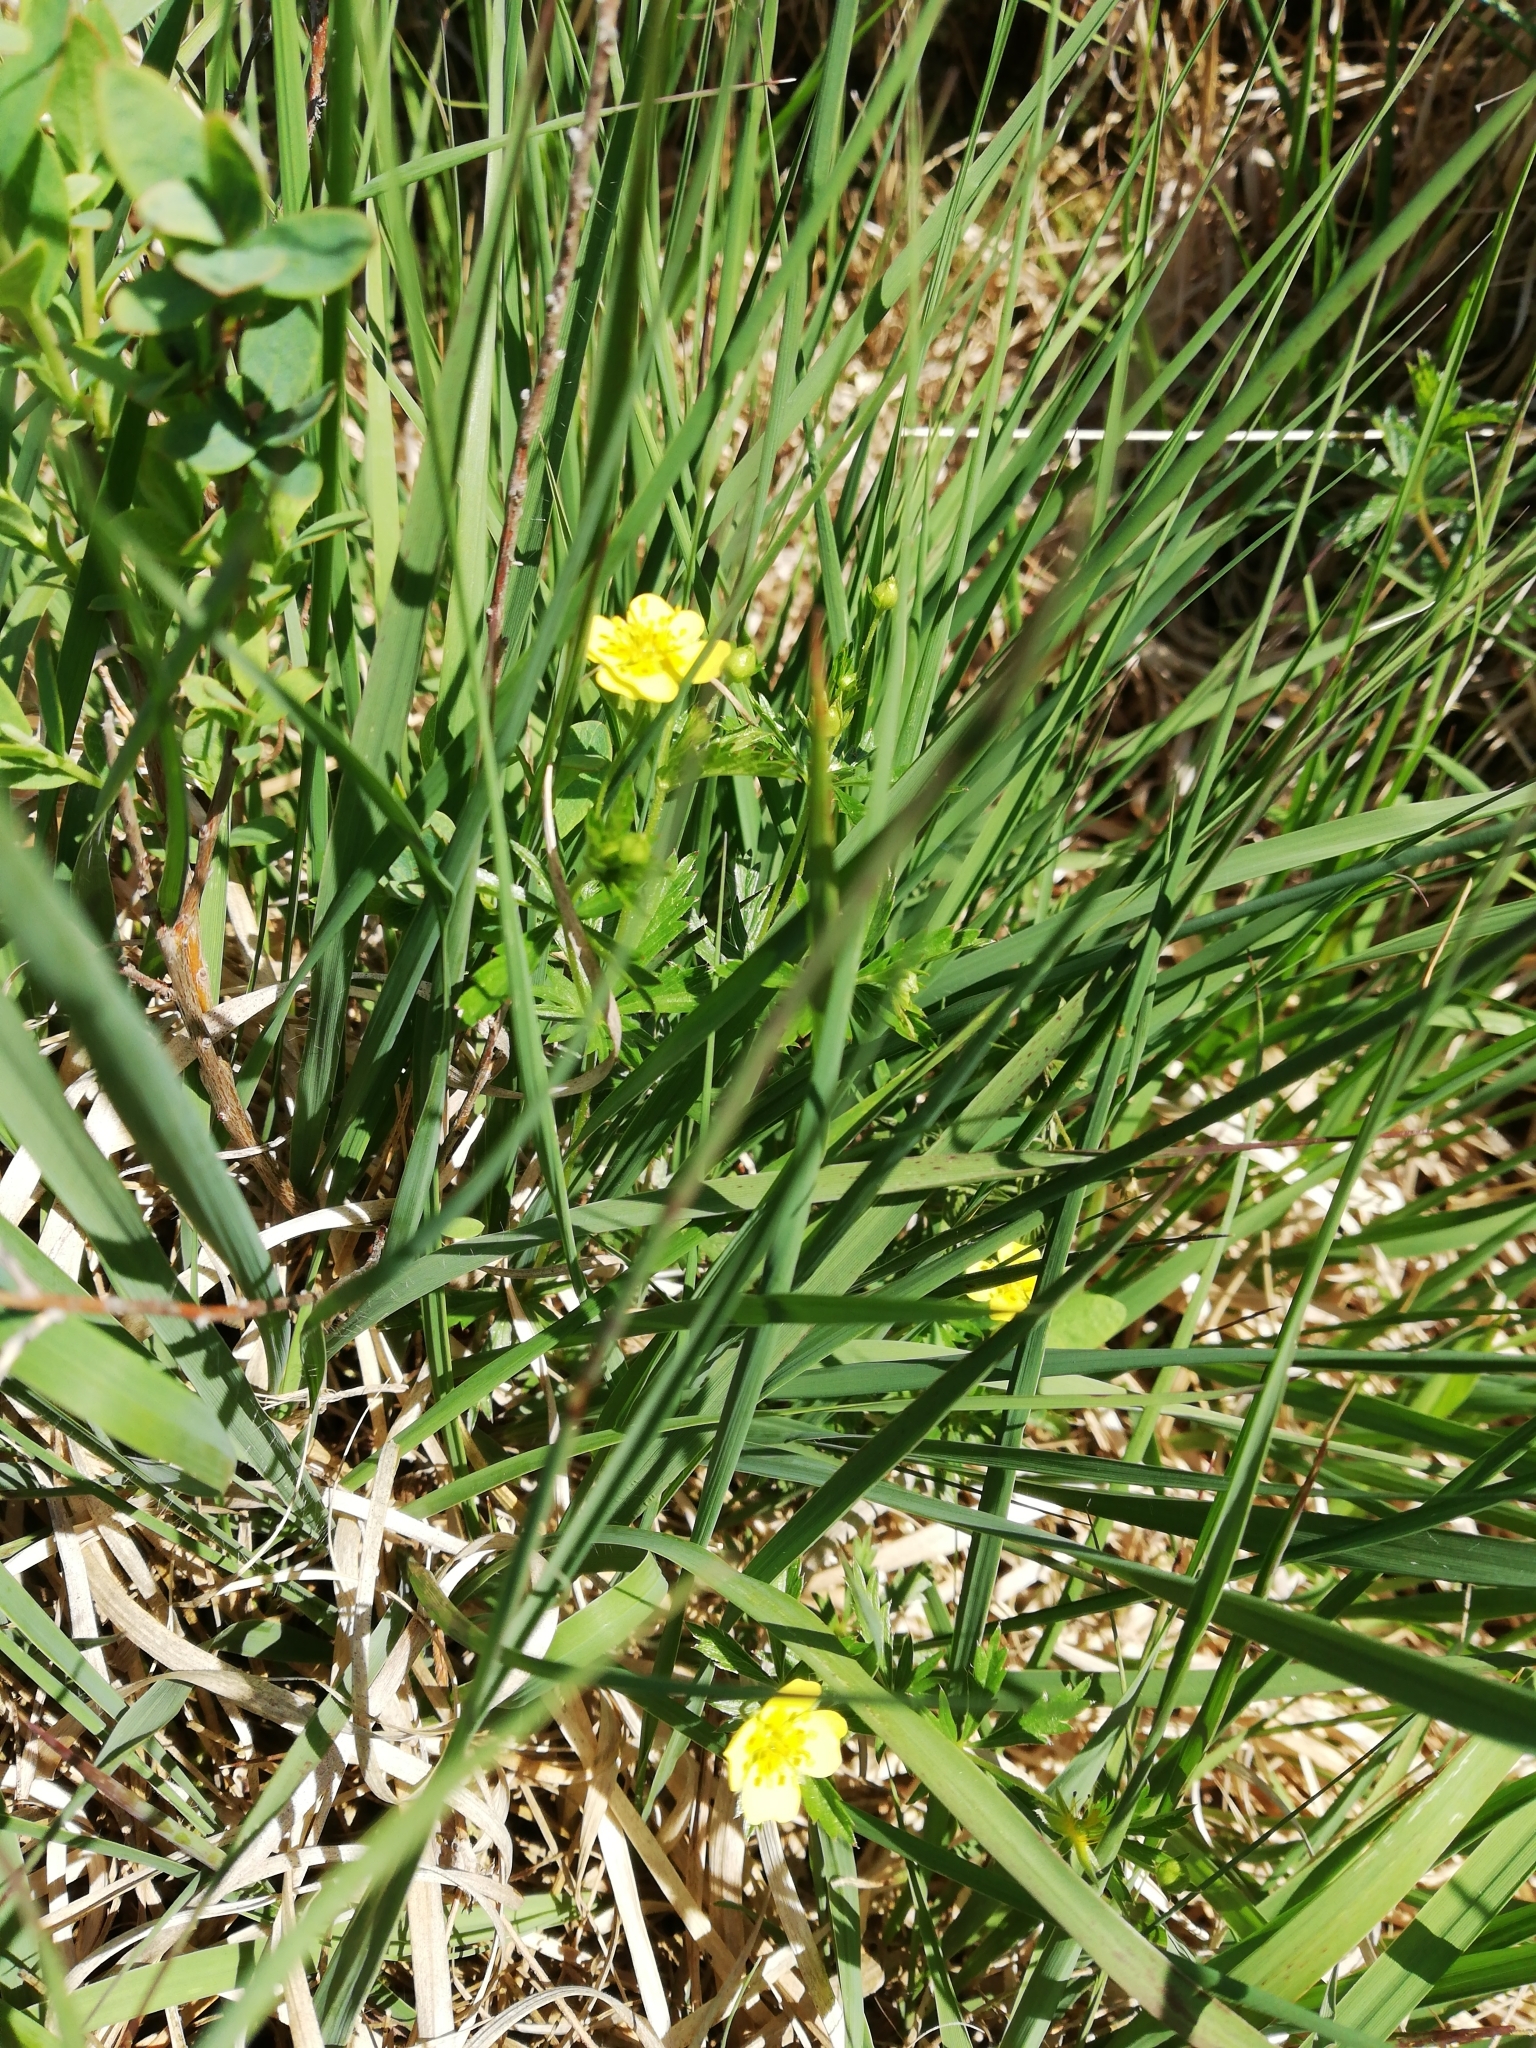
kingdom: Plantae
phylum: Tracheophyta
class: Magnoliopsida
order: Rosales
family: Rosaceae
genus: Potentilla
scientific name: Potentilla erecta
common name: Tormentil
